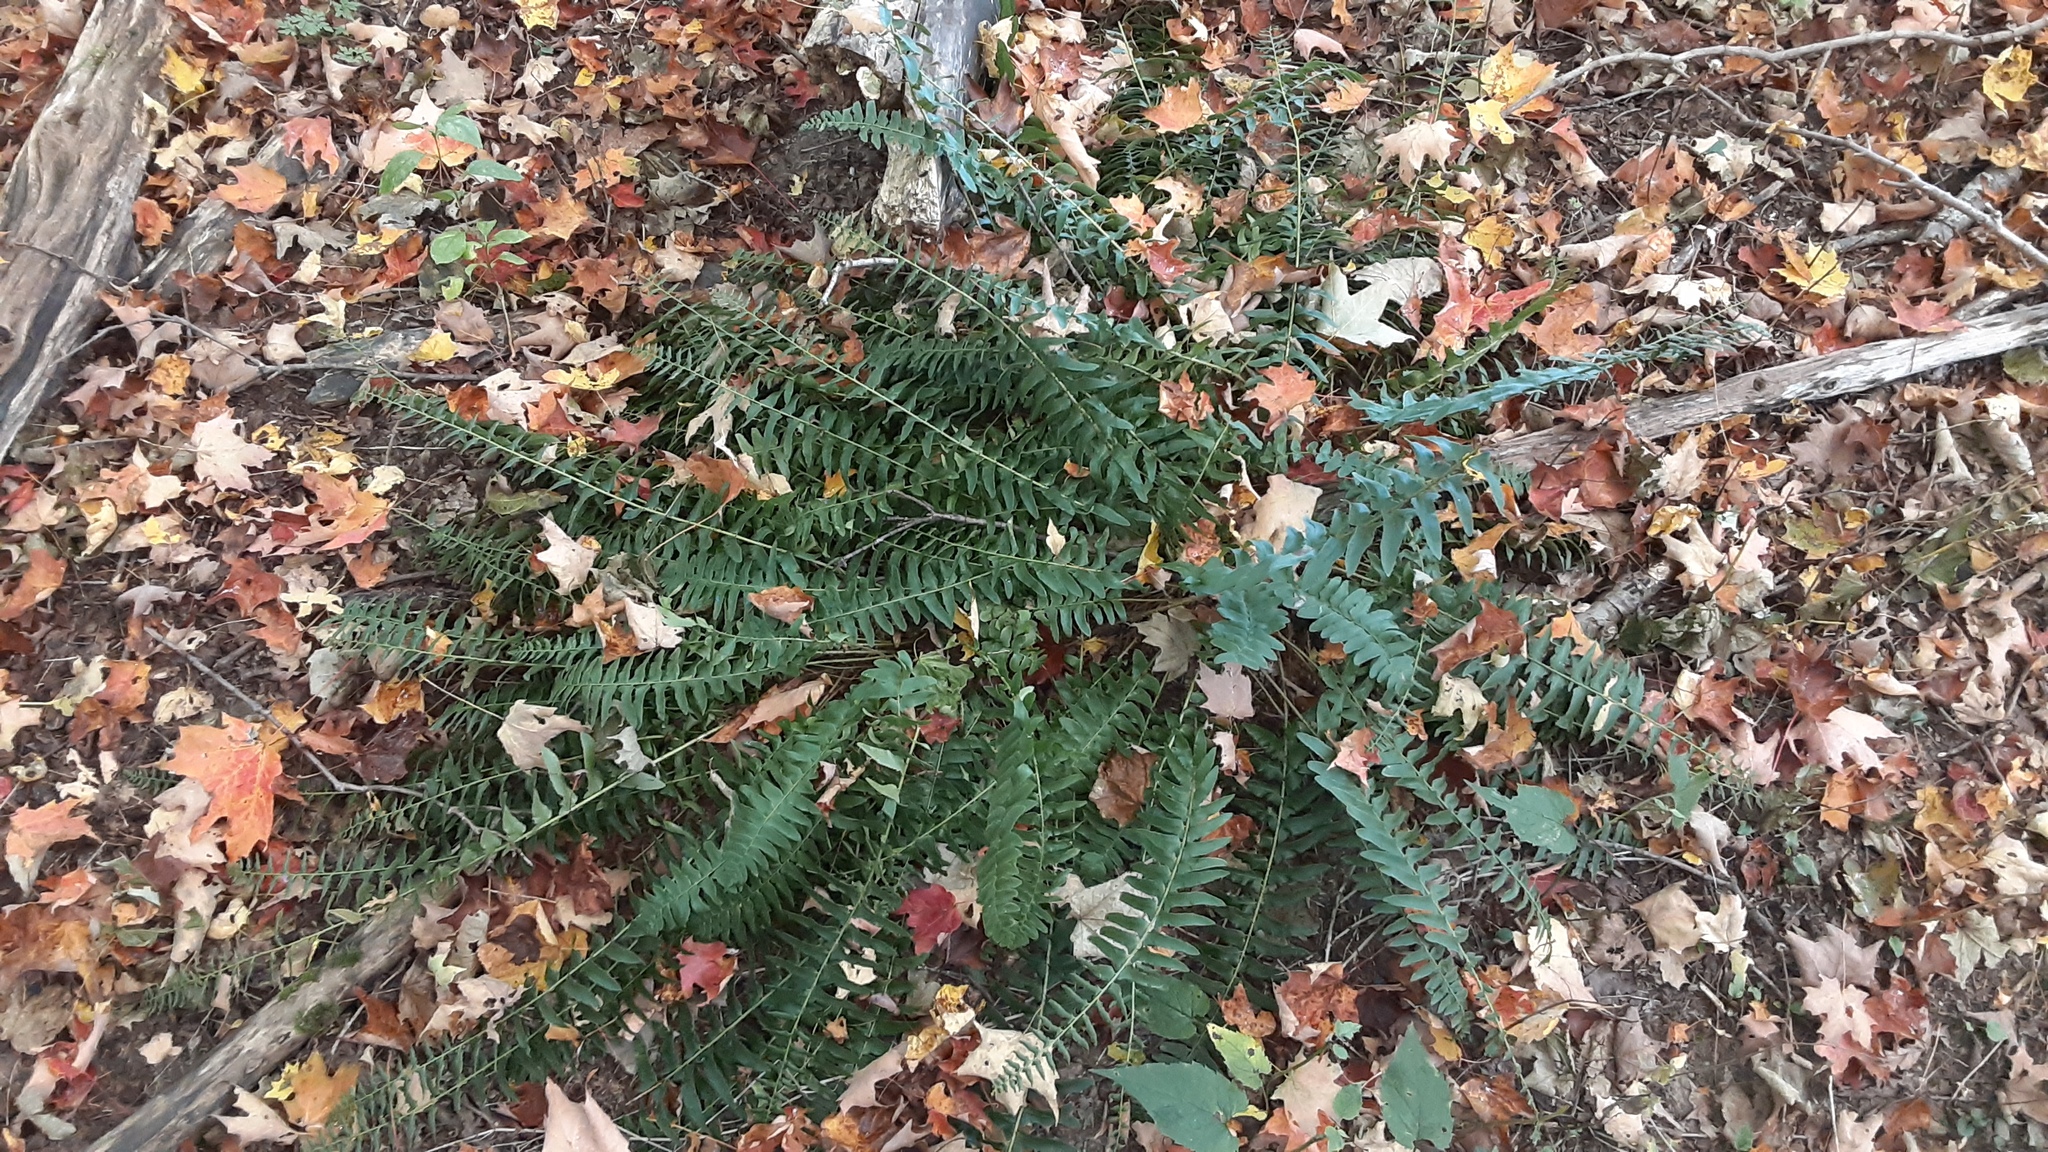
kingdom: Plantae
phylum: Tracheophyta
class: Polypodiopsida
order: Polypodiales
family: Dryopteridaceae
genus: Polystichum
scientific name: Polystichum acrostichoides
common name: Christmas fern
